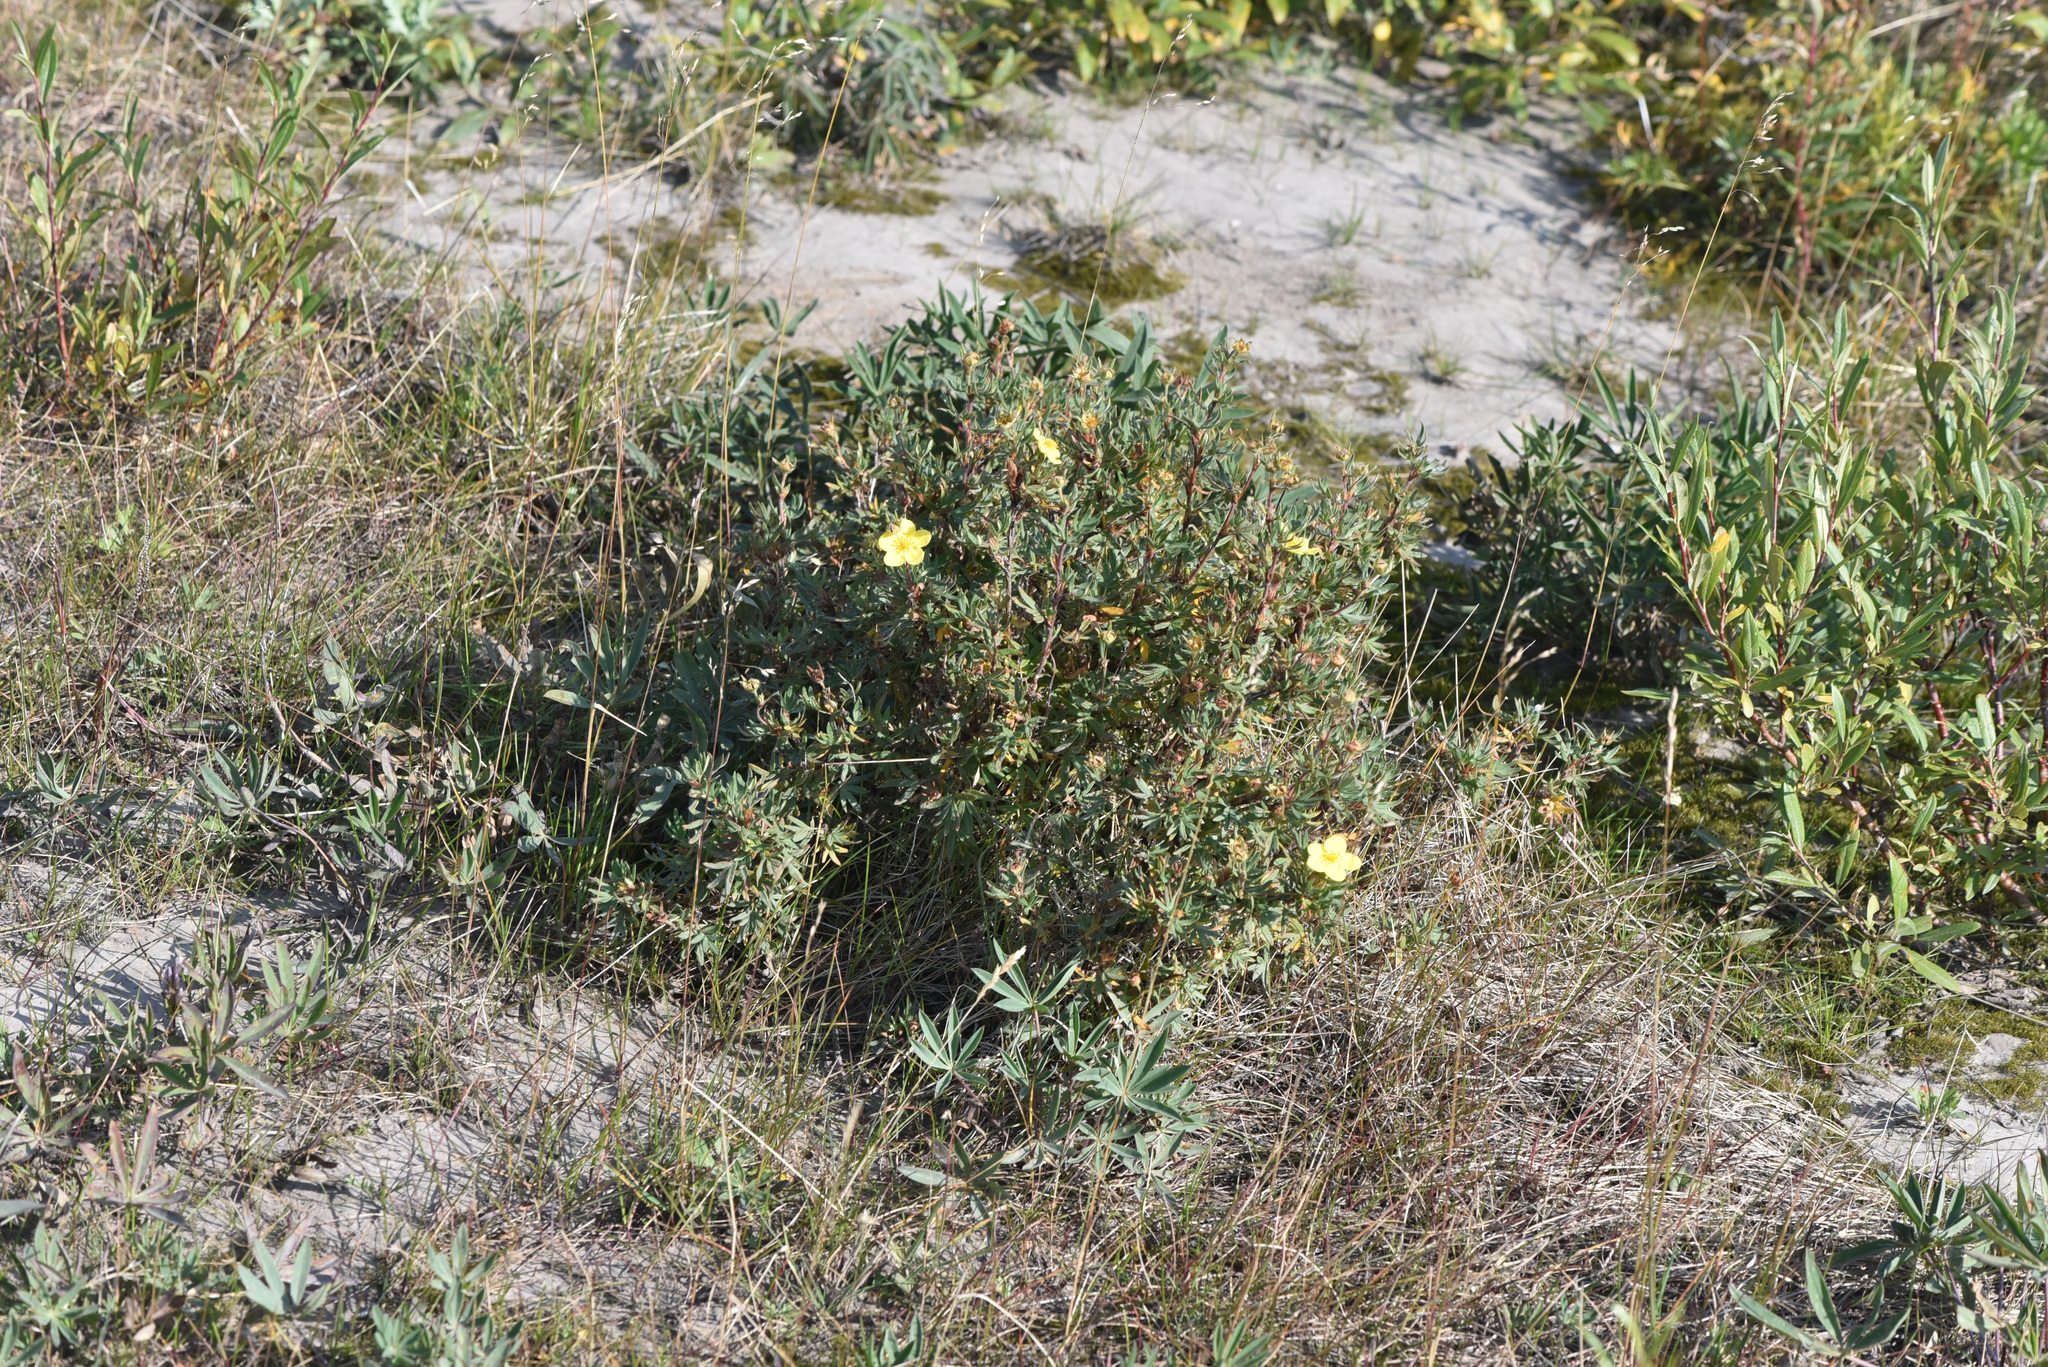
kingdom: Plantae
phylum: Tracheophyta
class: Magnoliopsida
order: Rosales
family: Rosaceae
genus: Dasiphora
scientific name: Dasiphora fruticosa
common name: Shrubby cinquefoil
